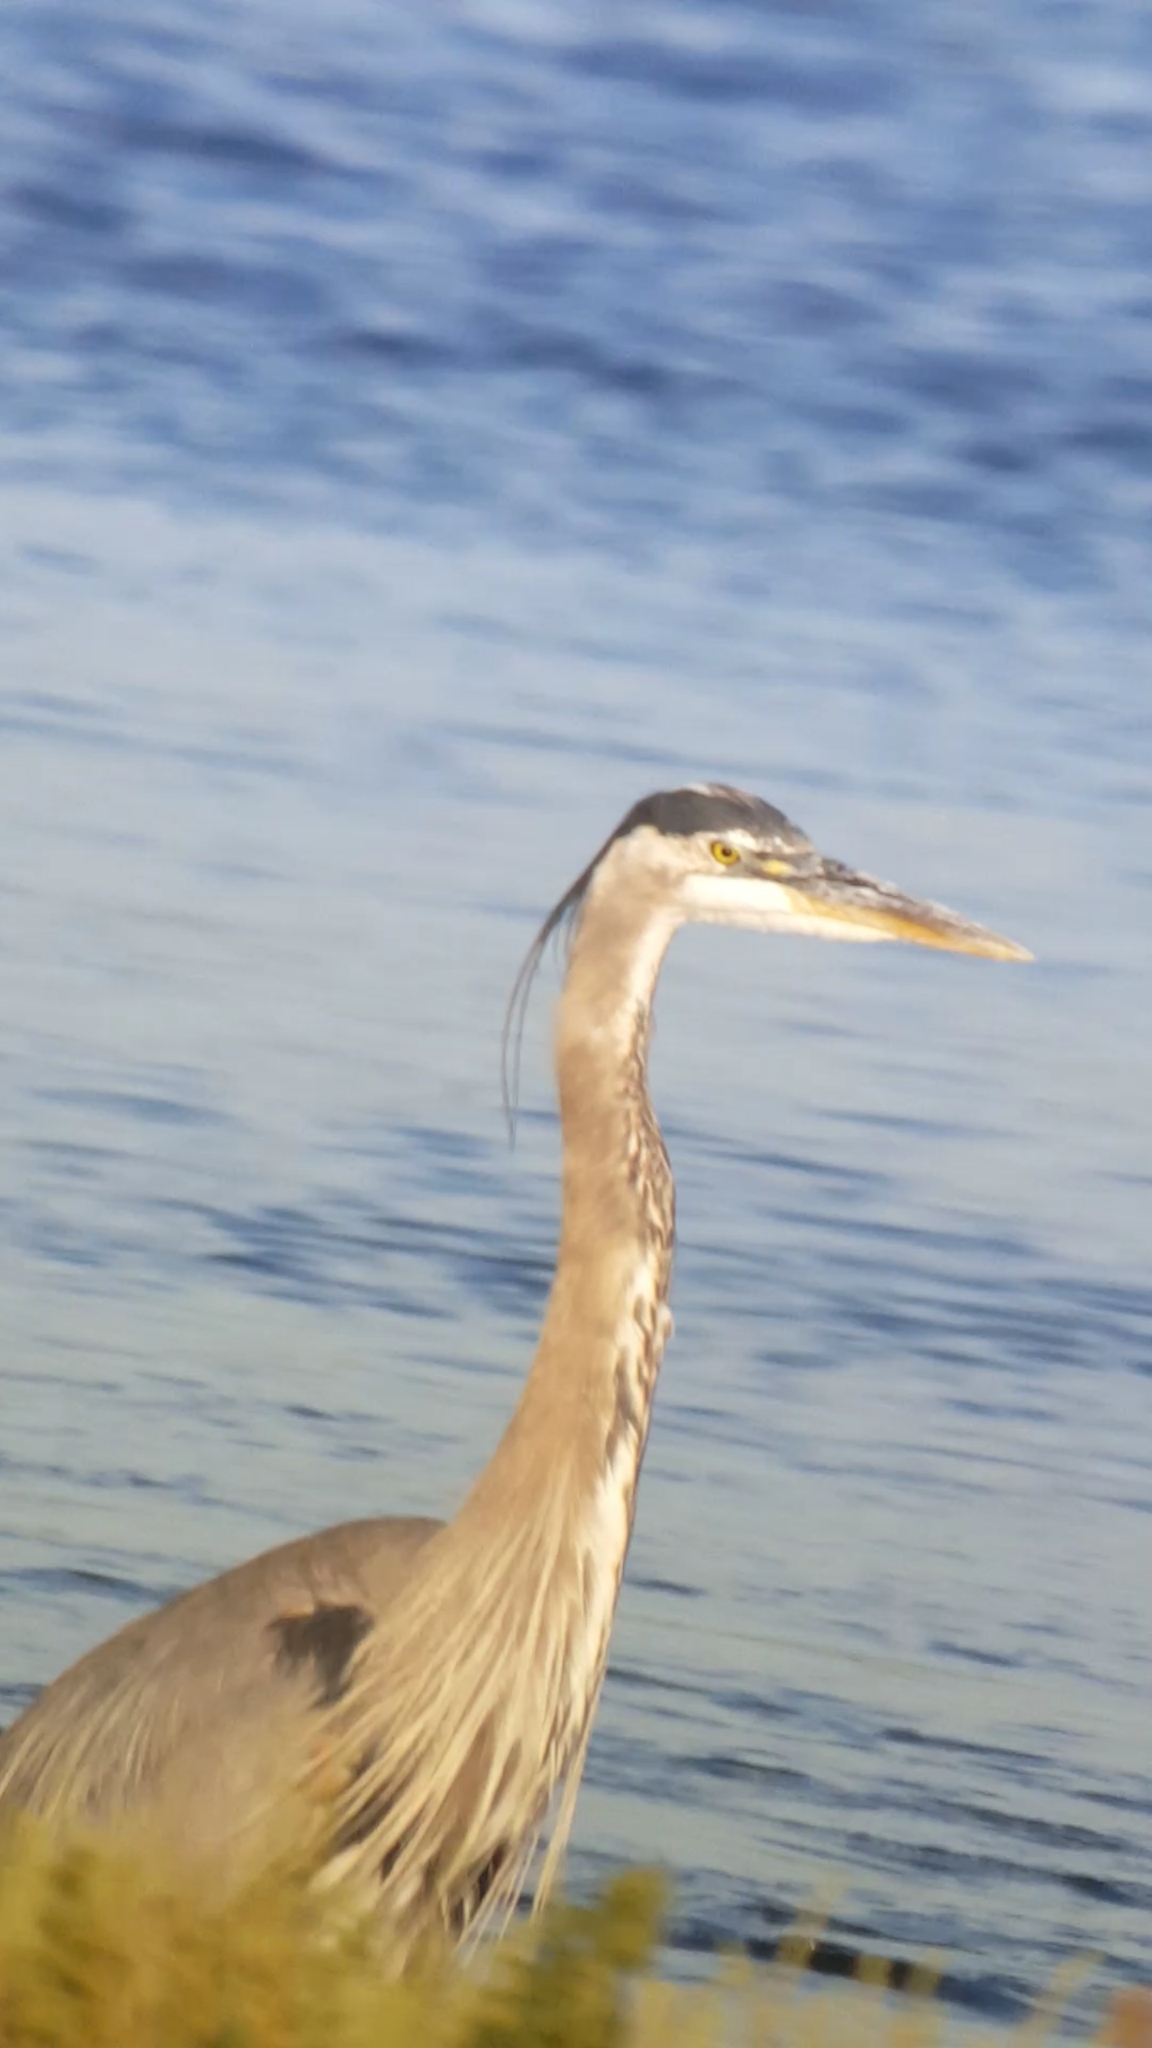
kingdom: Animalia
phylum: Chordata
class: Aves
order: Pelecaniformes
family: Ardeidae
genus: Ardea
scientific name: Ardea herodias
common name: Great blue heron
